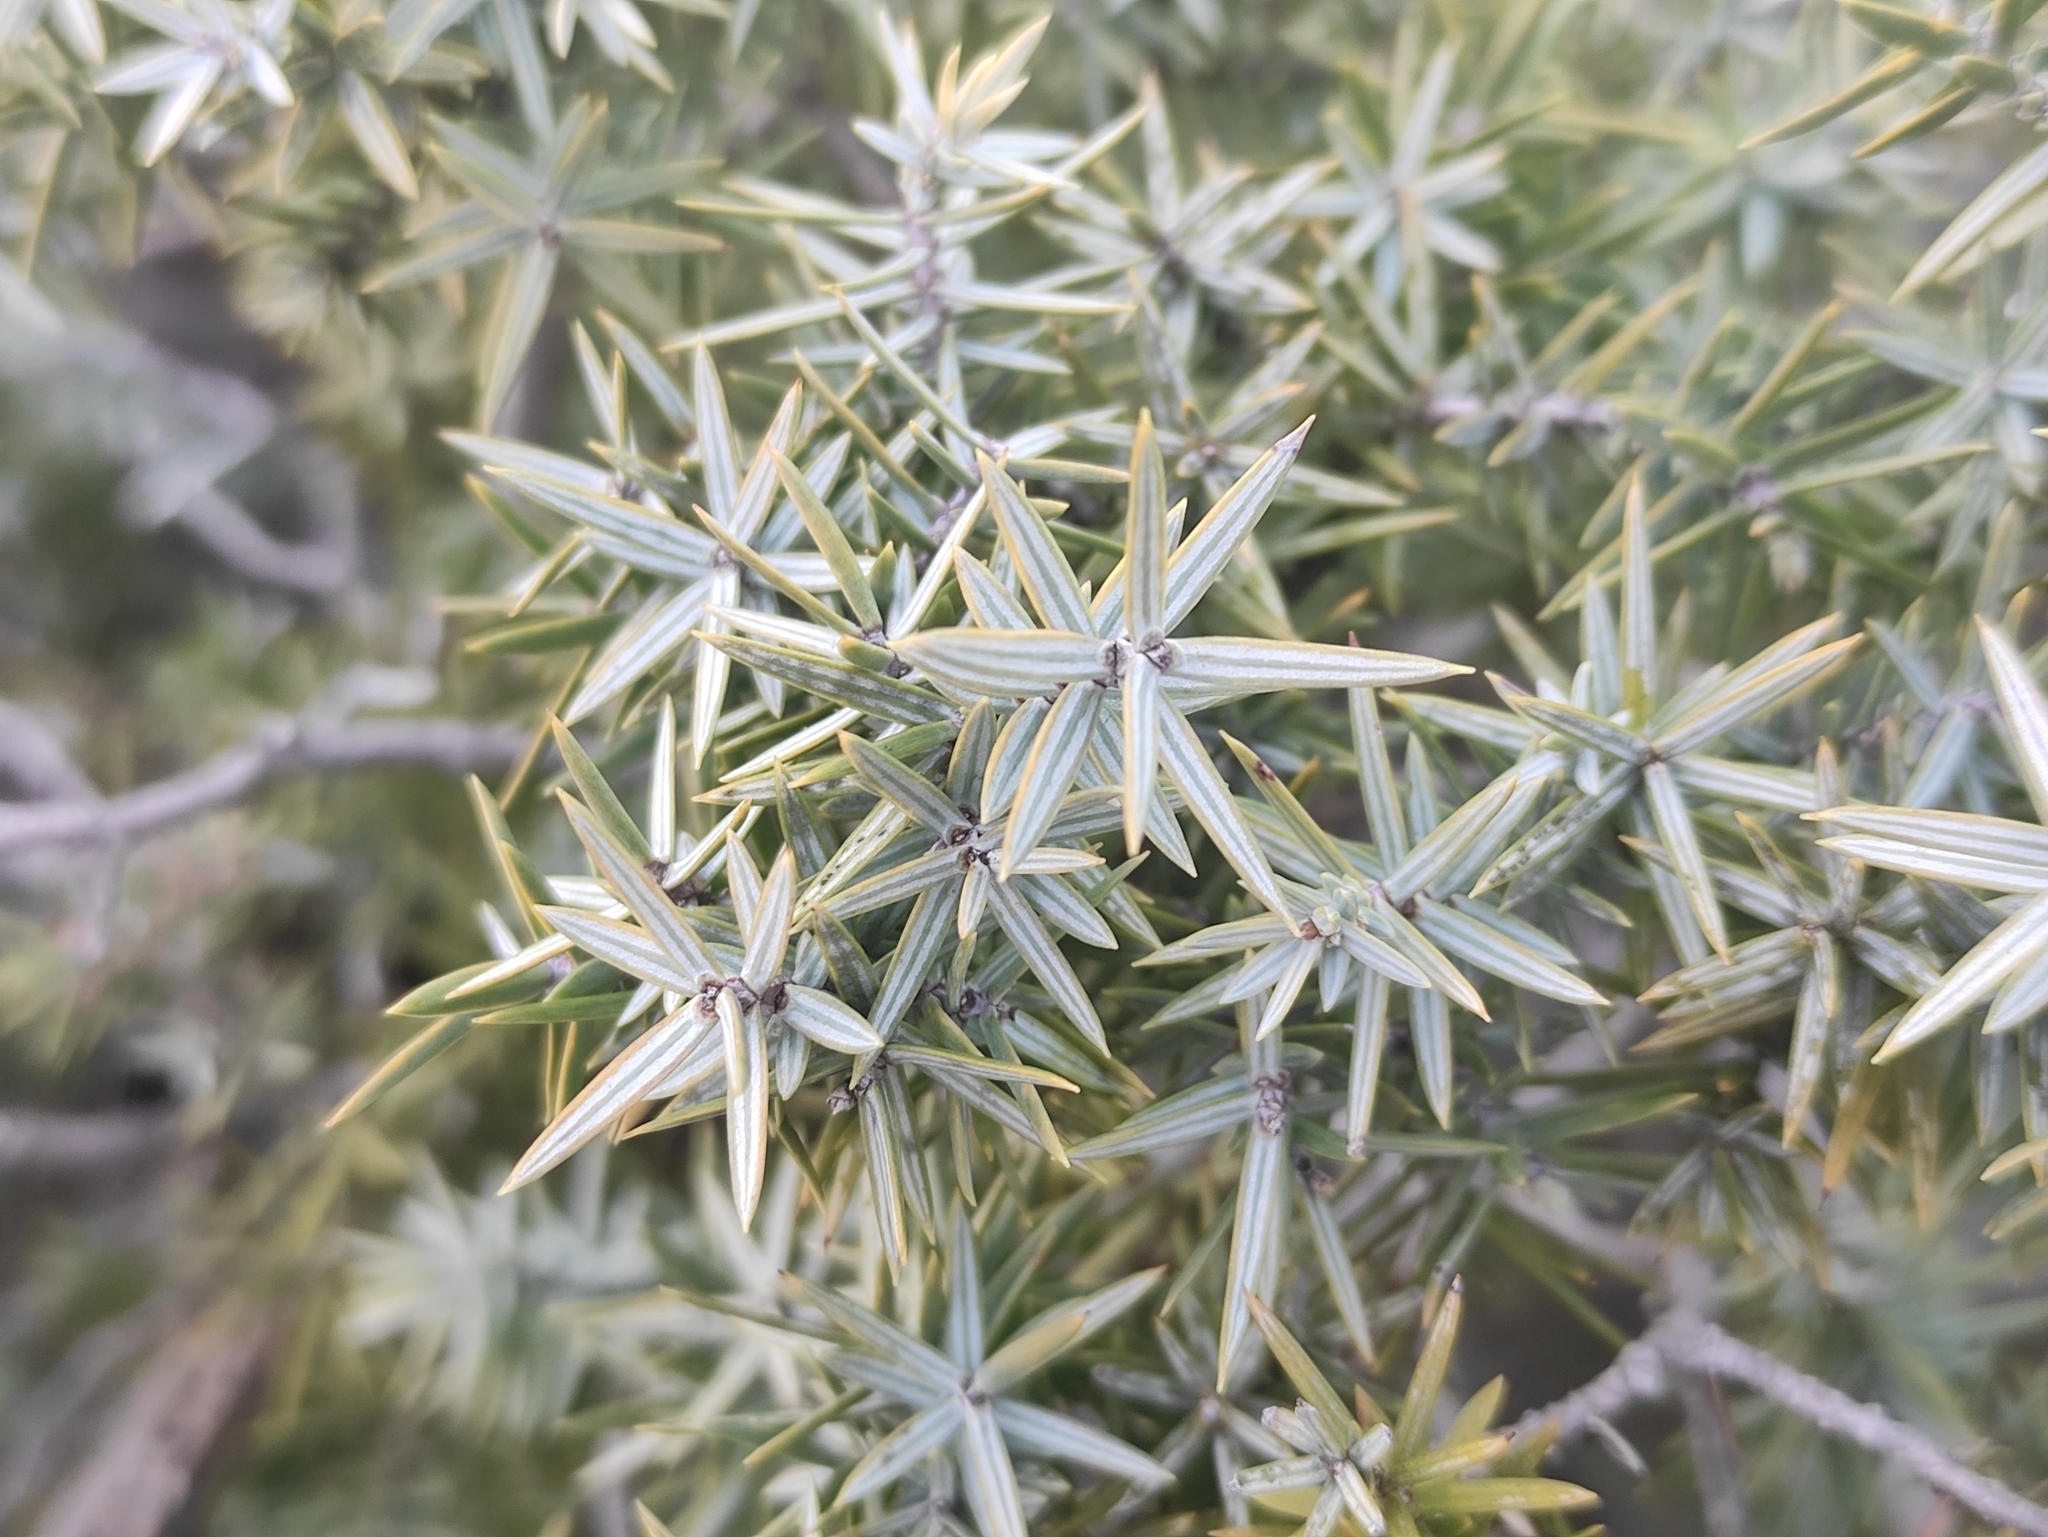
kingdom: Plantae
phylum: Tracheophyta
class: Pinopsida
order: Pinales
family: Cupressaceae
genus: Juniperus
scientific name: Juniperus oxycedrus
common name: Prickly juniper
